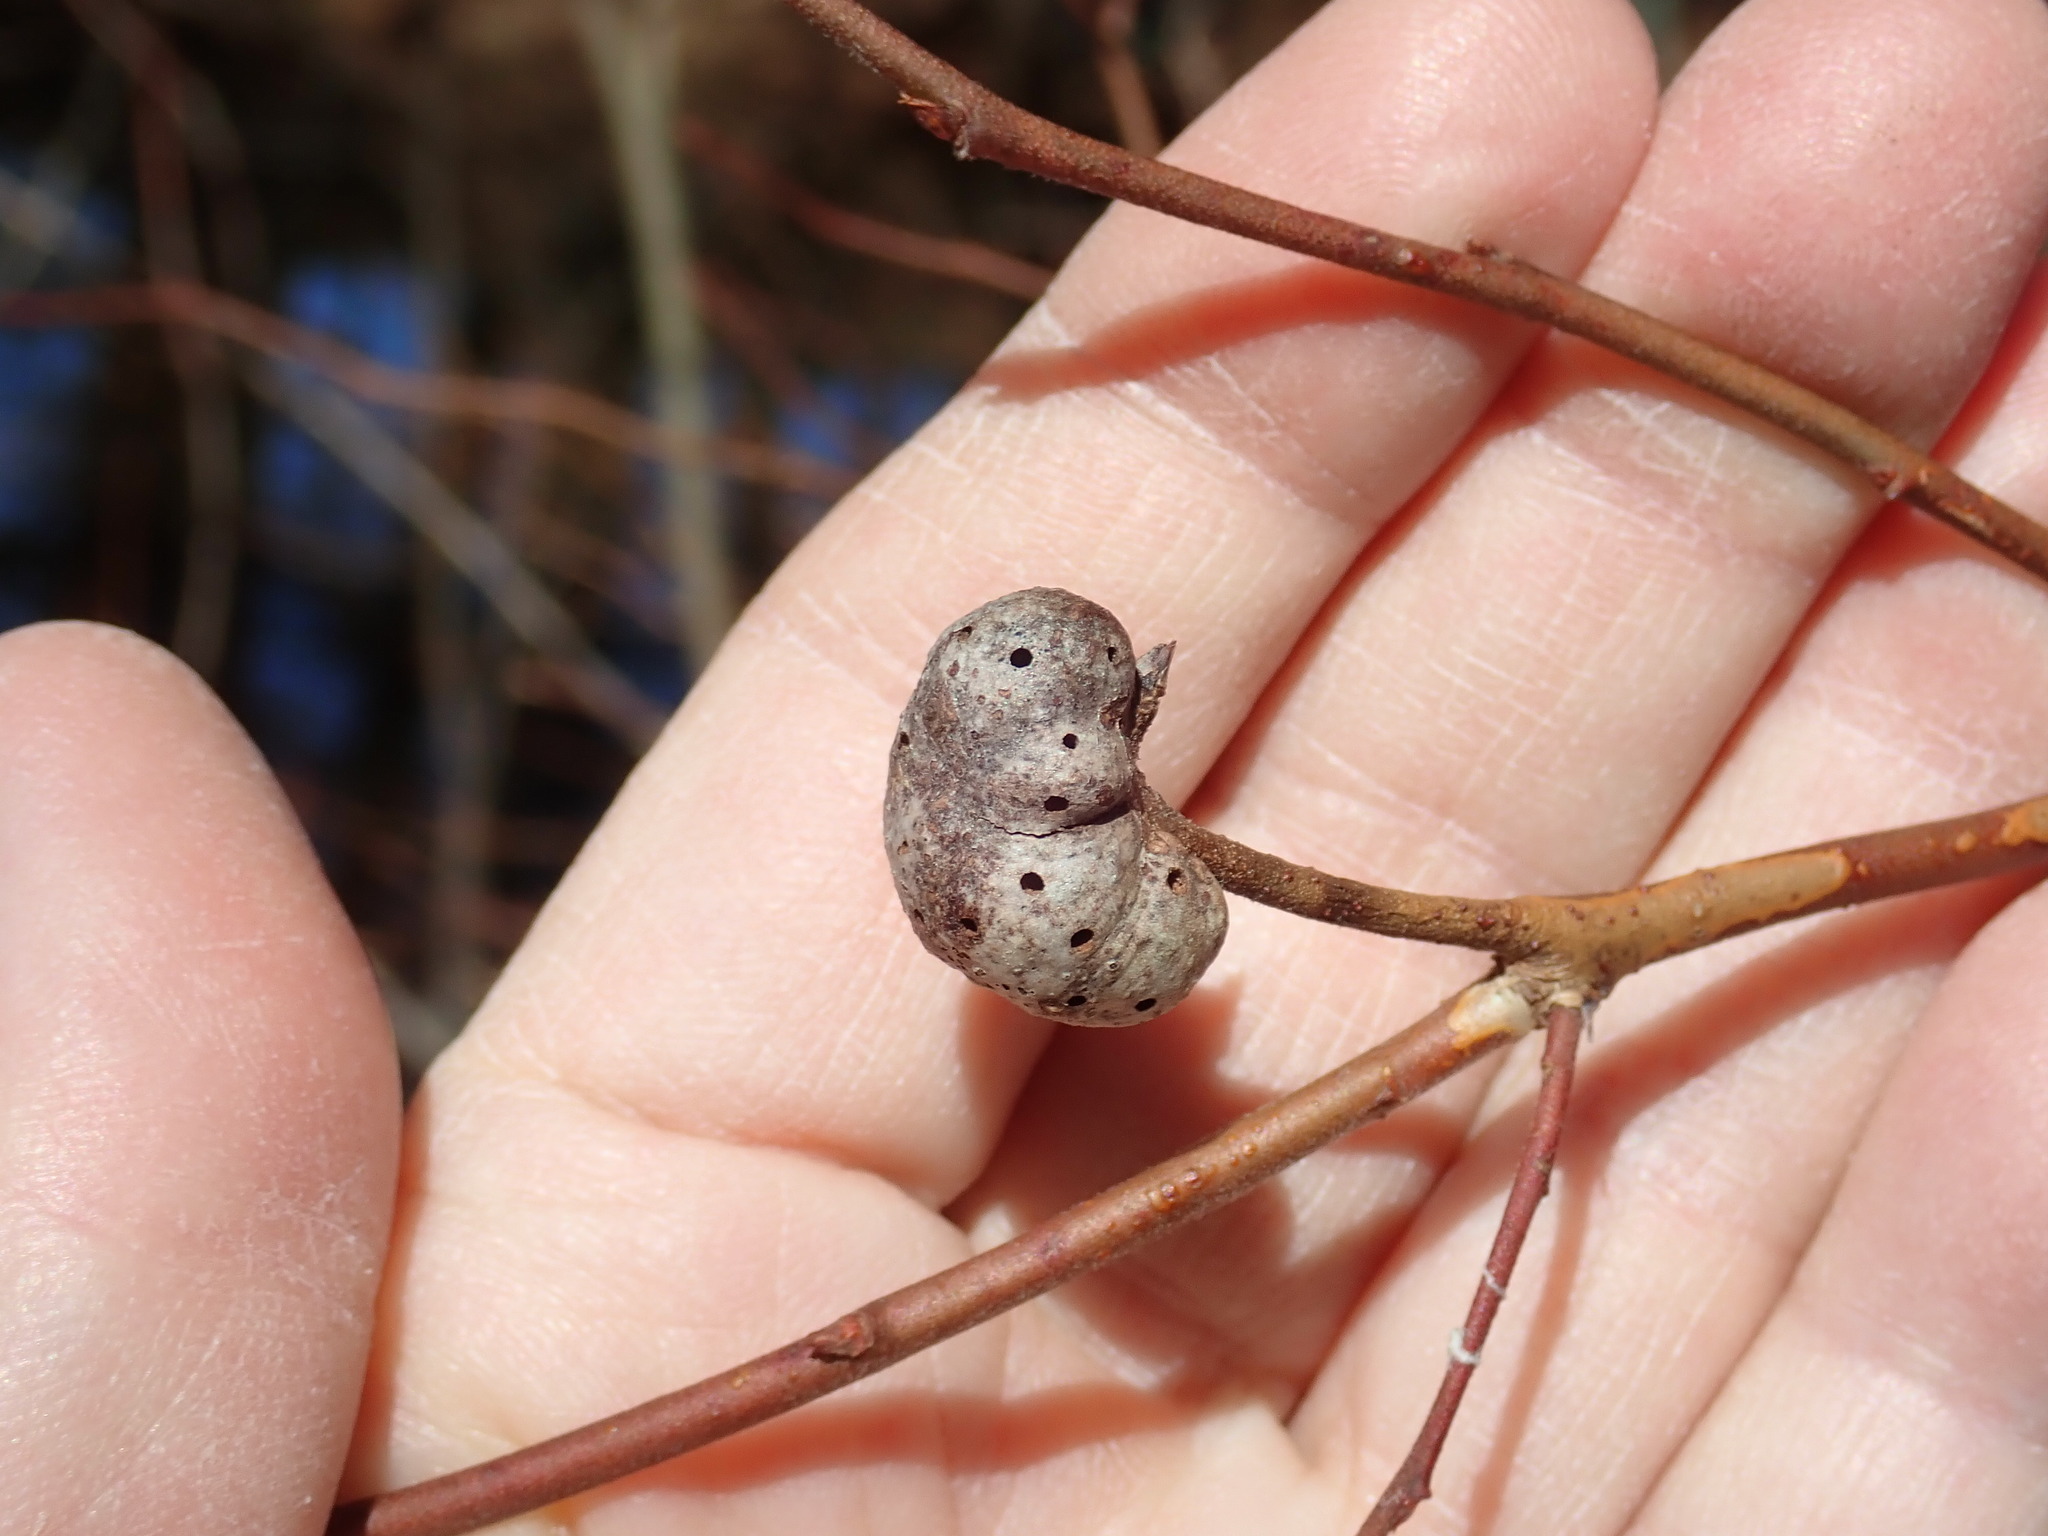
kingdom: Animalia
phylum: Arthropoda
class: Insecta
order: Hymenoptera
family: Pteromalidae
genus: Hemadas
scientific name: Hemadas nubilipennis
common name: Blueberry stem gall wasp
